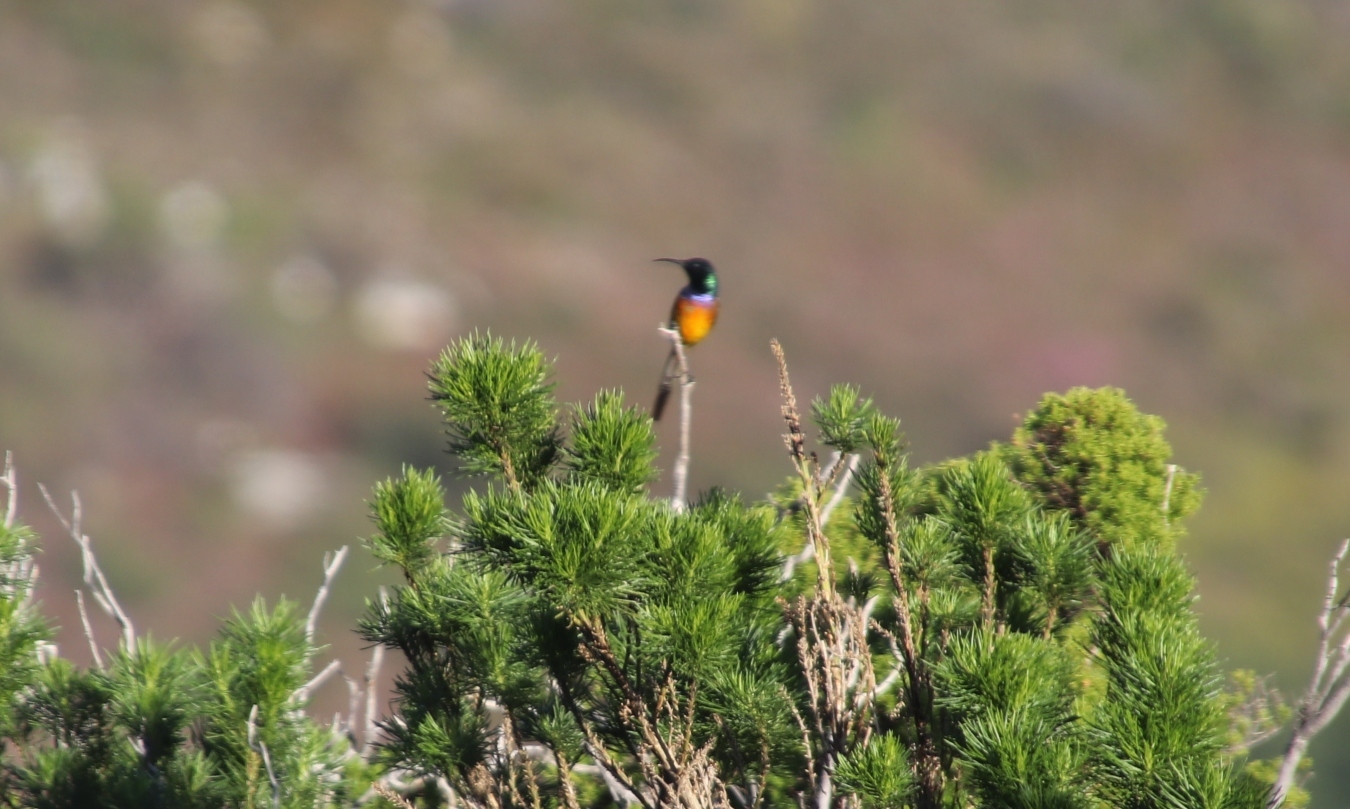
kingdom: Animalia
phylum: Chordata
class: Aves
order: Passeriformes
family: Nectariniidae
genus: Anthobaphes
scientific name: Anthobaphes violacea
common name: Orange-breasted sunbird
